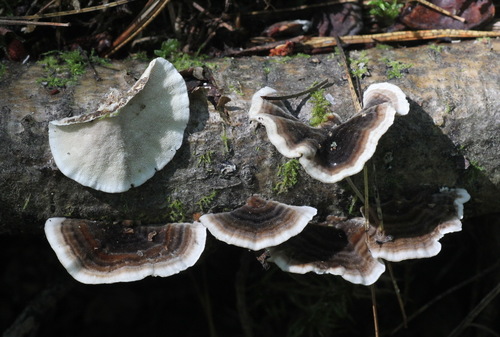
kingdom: Fungi
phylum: Basidiomycota
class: Agaricomycetes
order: Polyporales
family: Polyporaceae
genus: Trametes
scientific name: Trametes versicolor
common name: Turkeytail
